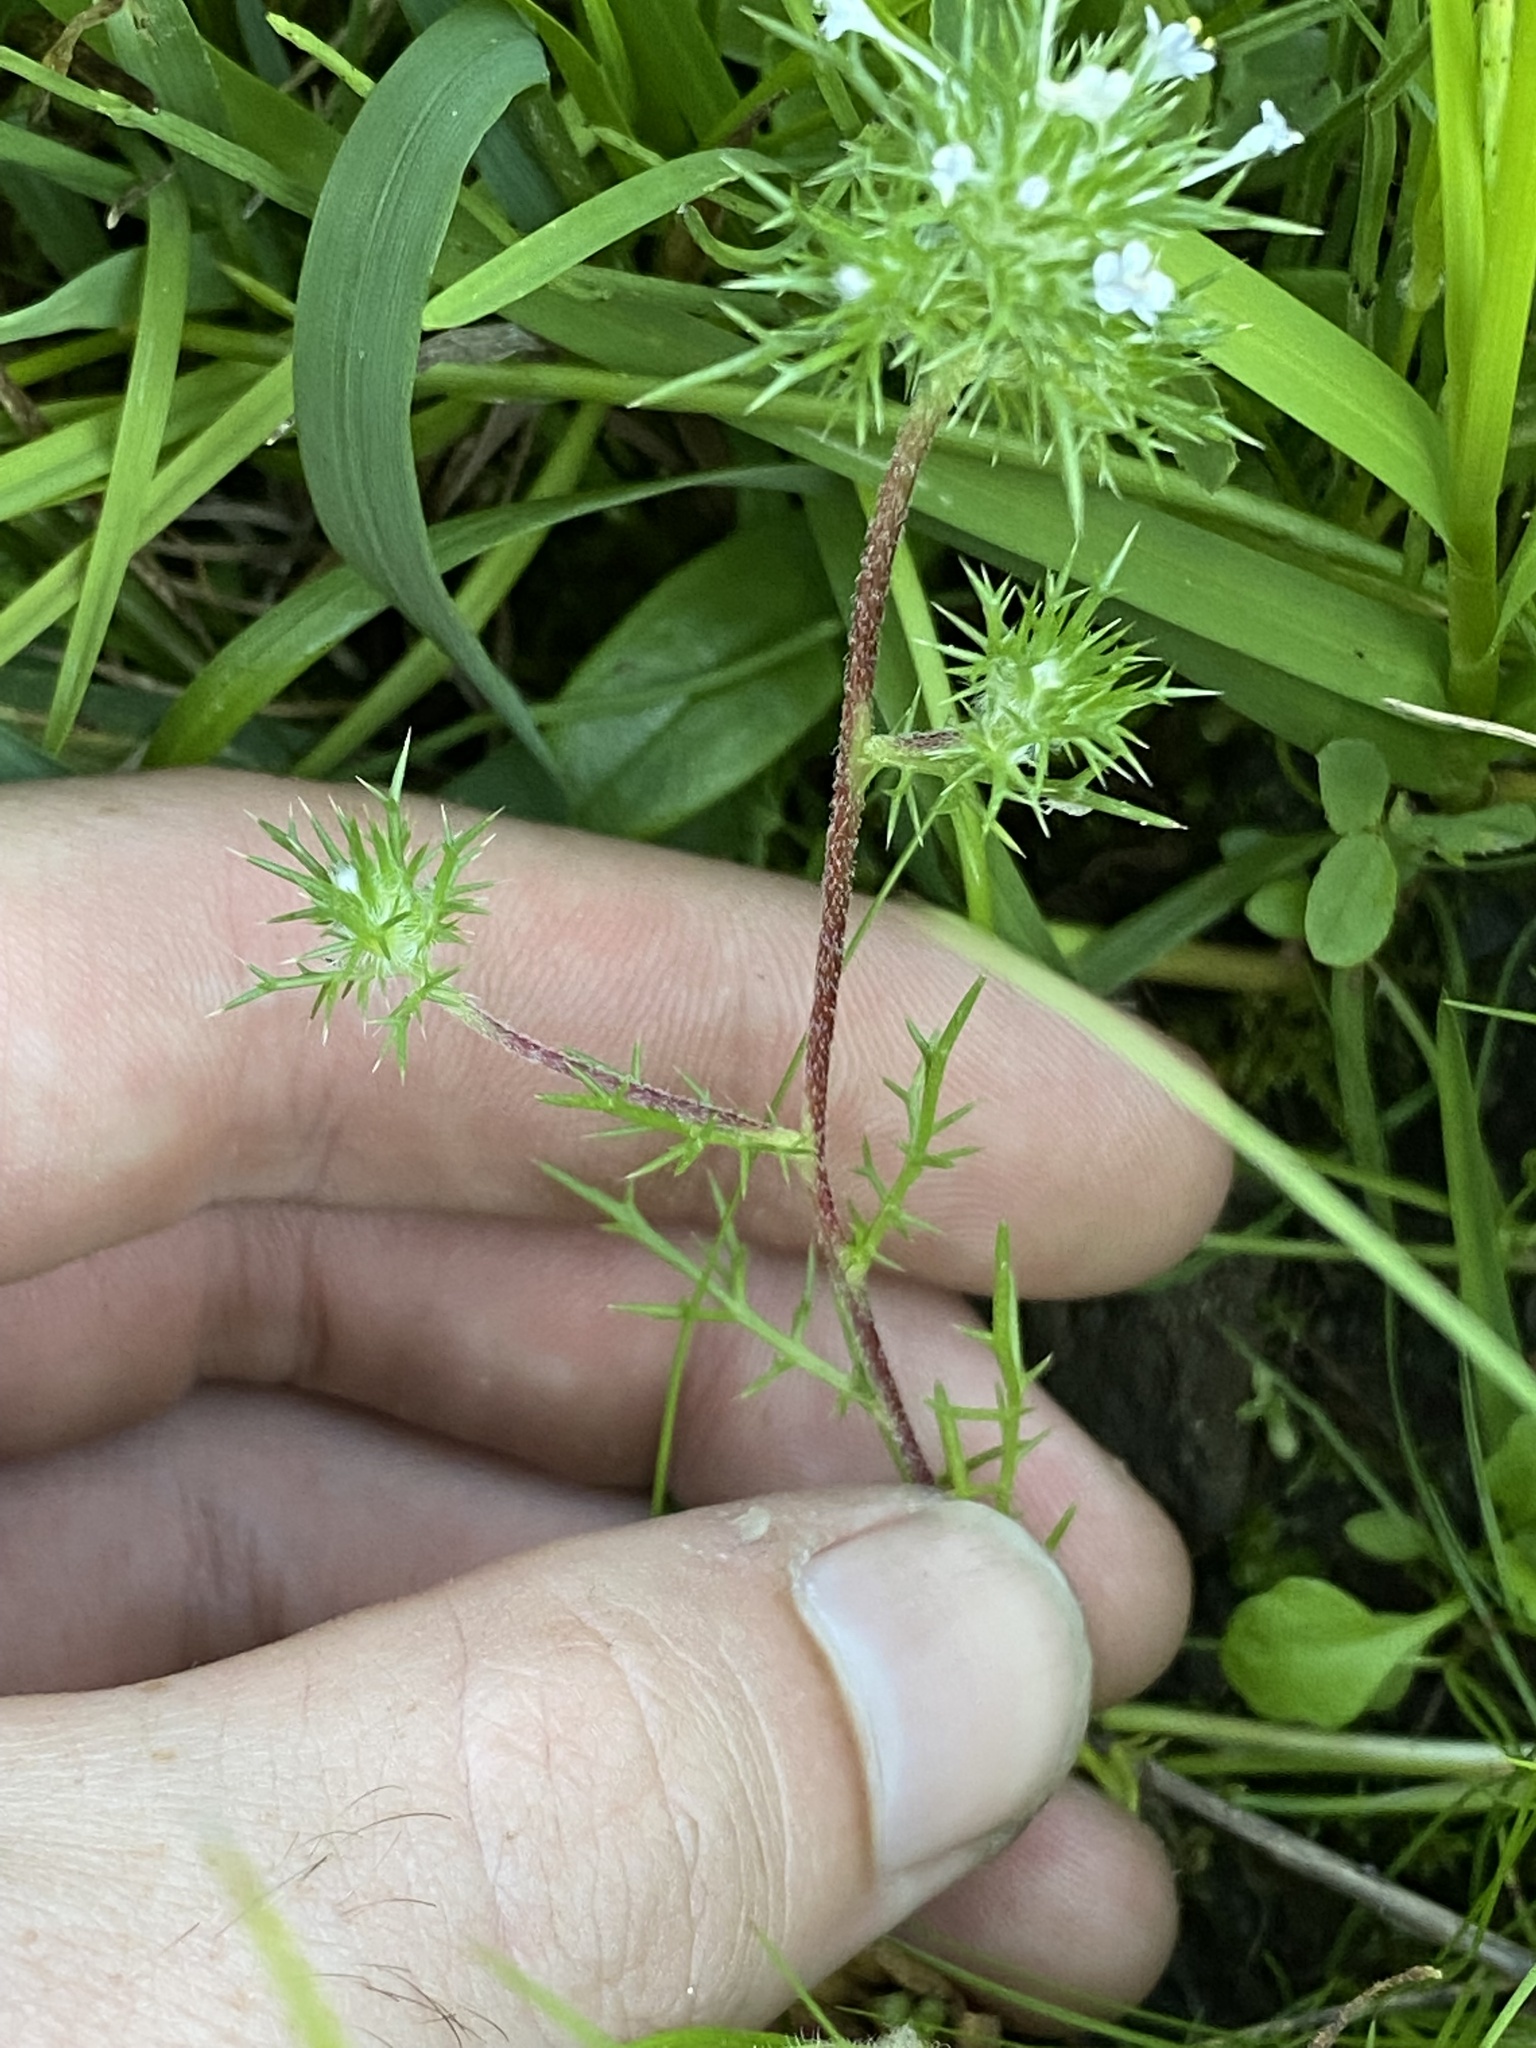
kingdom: Plantae
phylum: Tracheophyta
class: Magnoliopsida
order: Ericales
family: Polemoniaceae
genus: Navarretia
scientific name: Navarretia intertexta
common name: Needle-leaved navarretia
